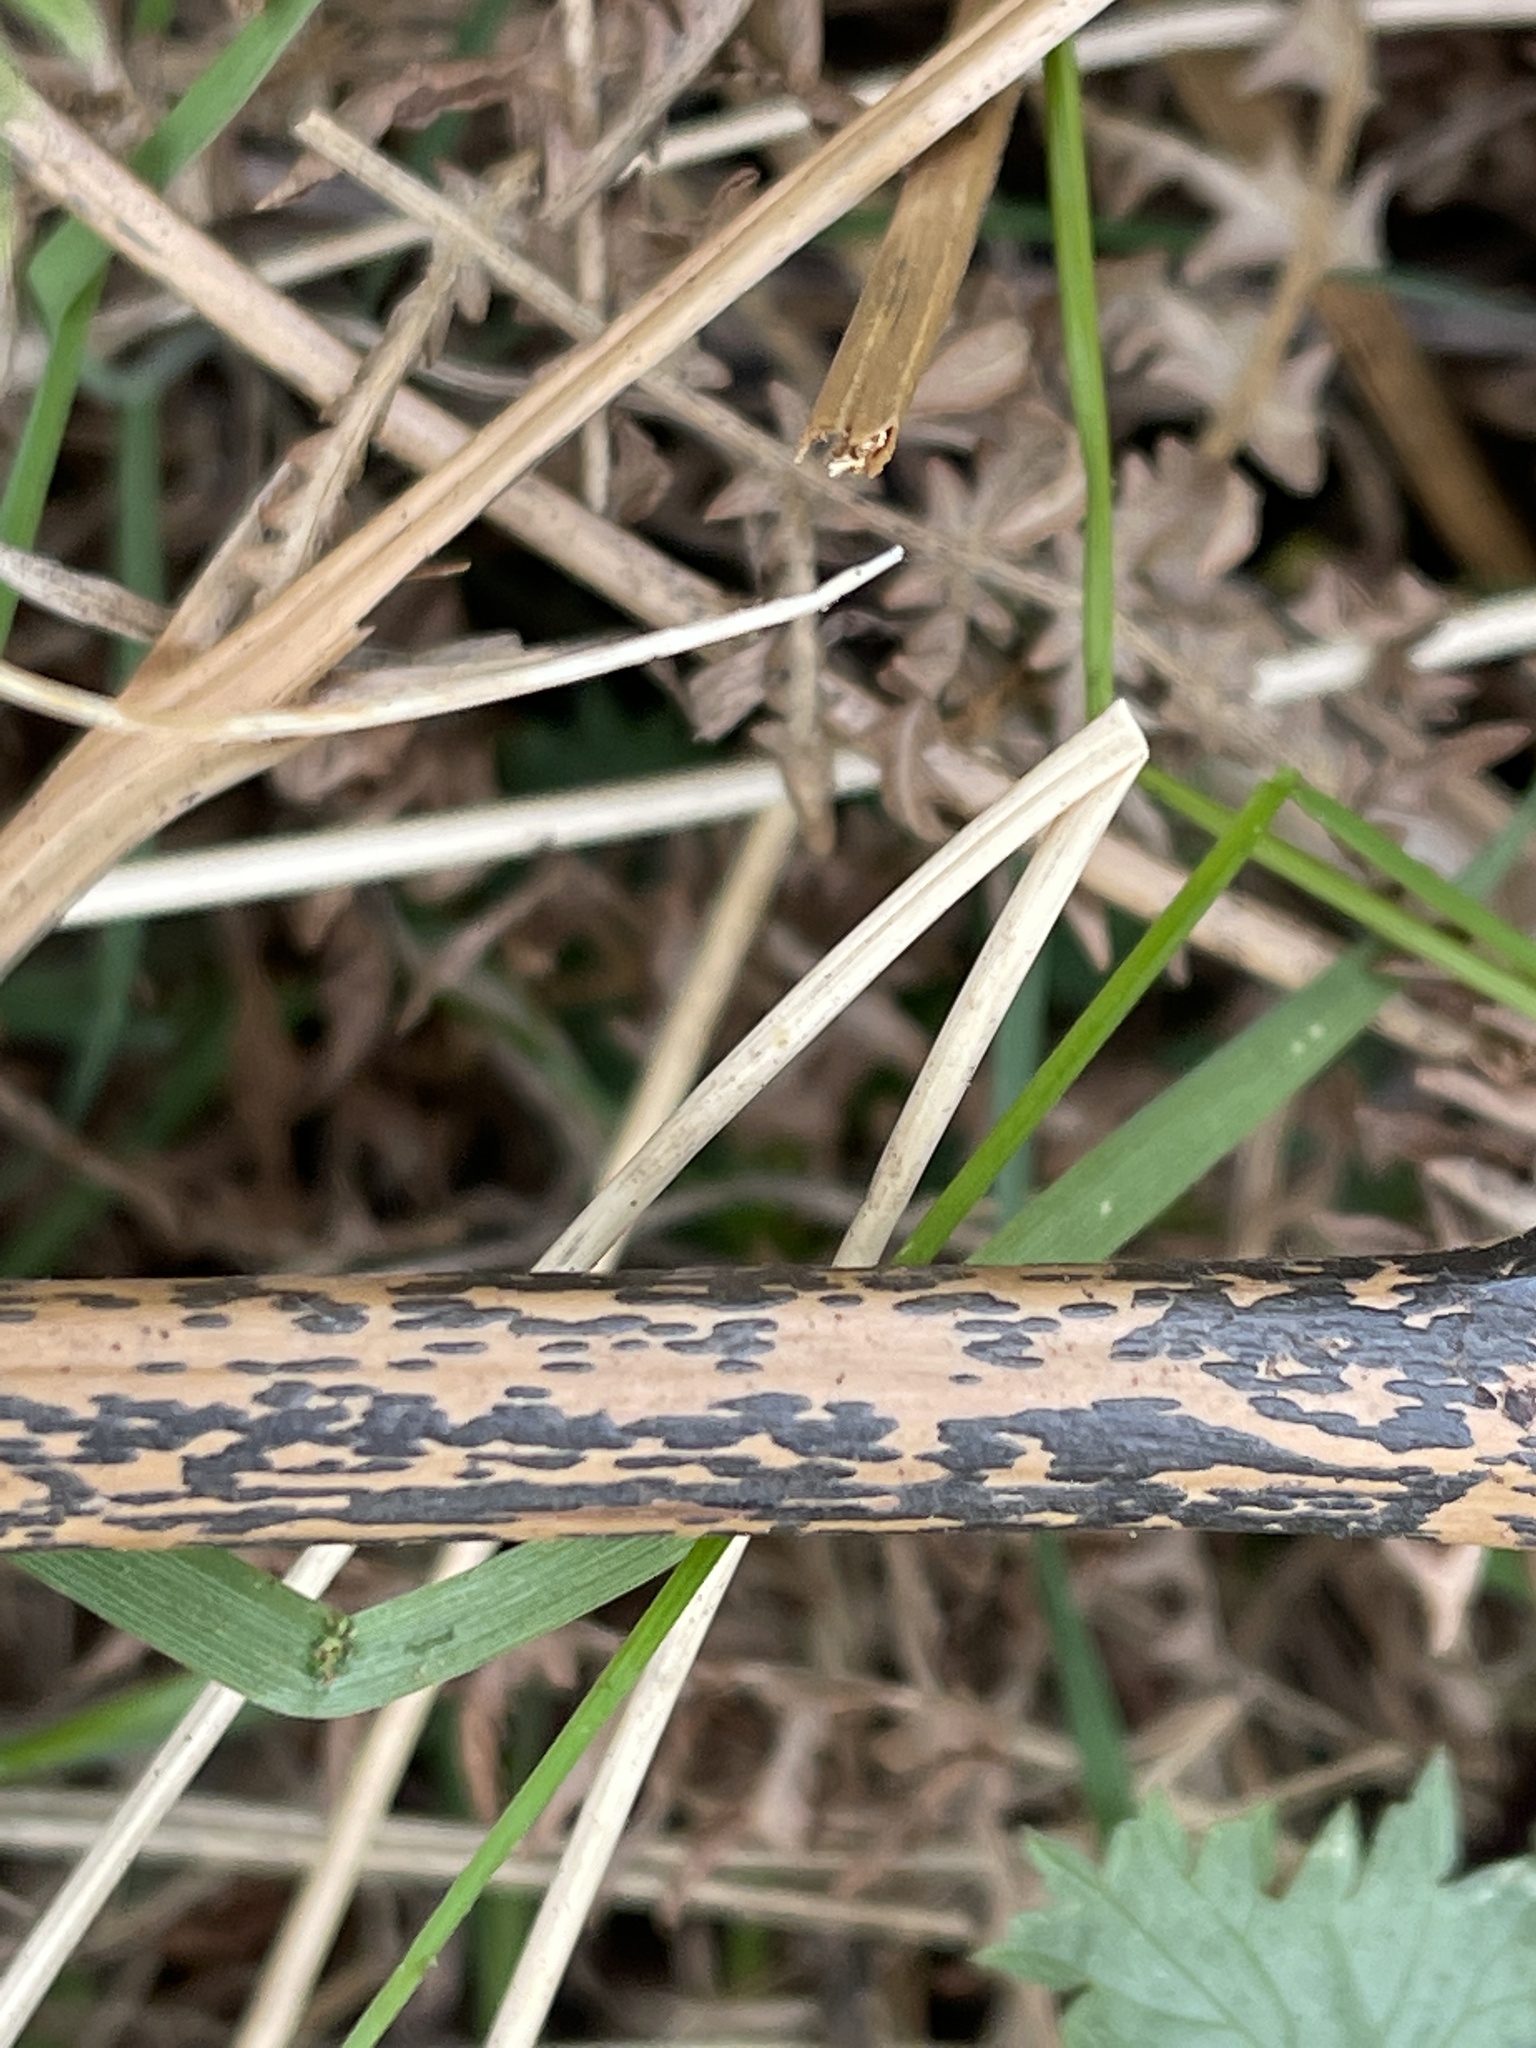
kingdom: Fungi
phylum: Ascomycota
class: Dothideomycetes
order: Pleosporales
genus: Rhopographus
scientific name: Rhopographus filicinus
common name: Bracken map
